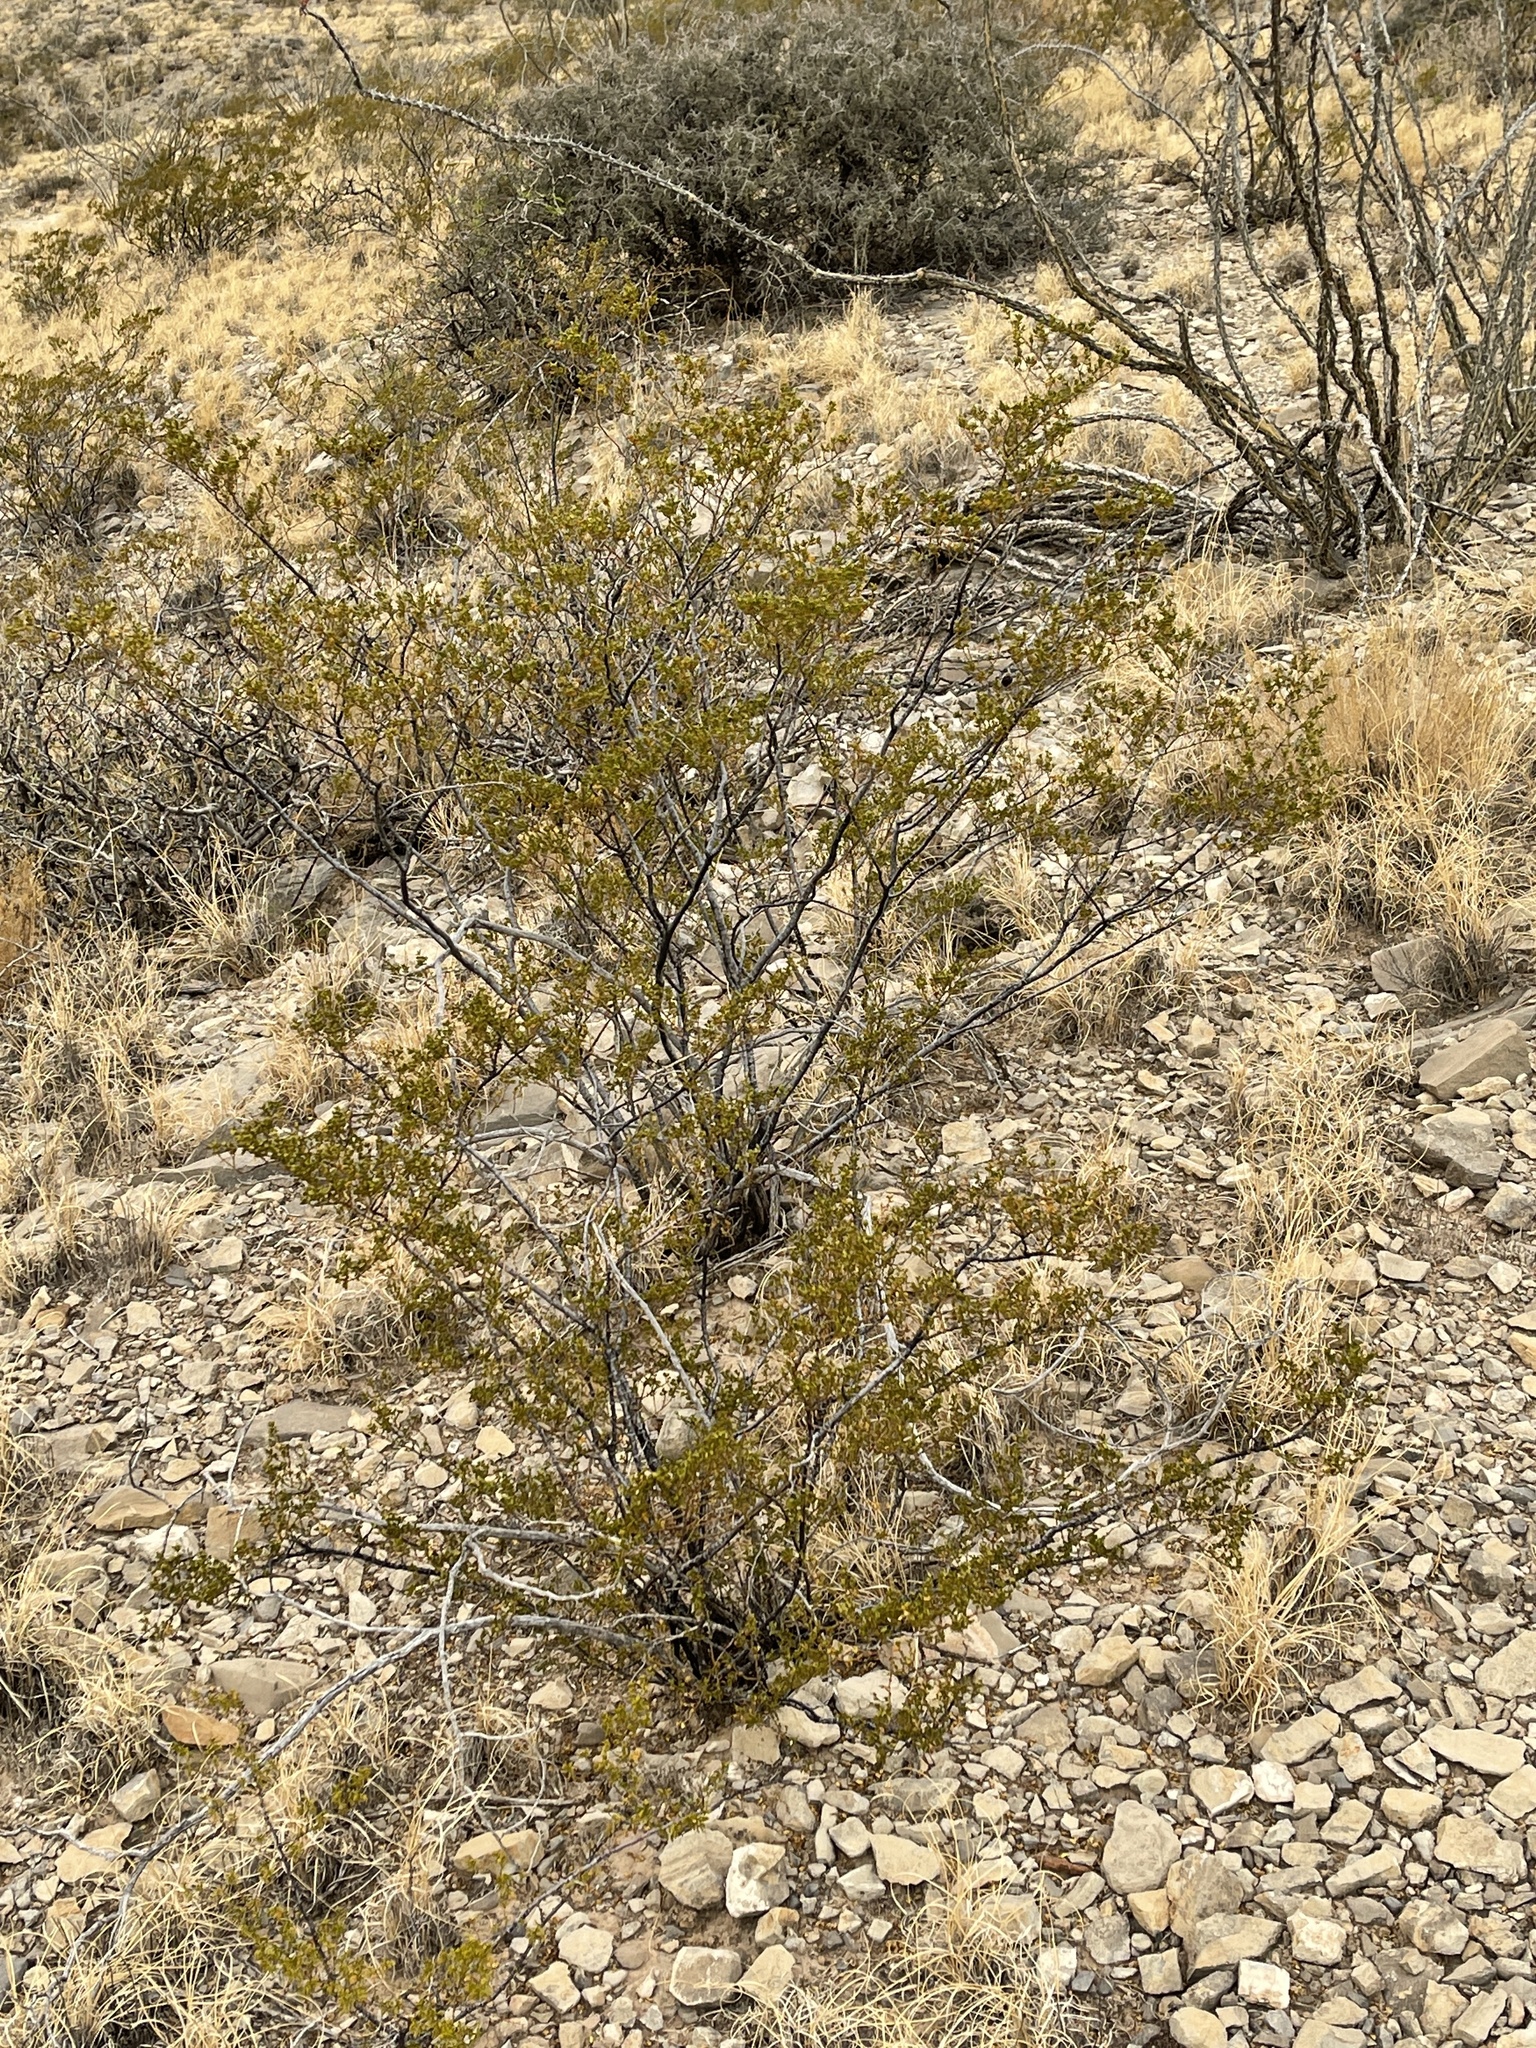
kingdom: Plantae
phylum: Tracheophyta
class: Magnoliopsida
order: Zygophyllales
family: Zygophyllaceae
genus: Larrea
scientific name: Larrea tridentata
